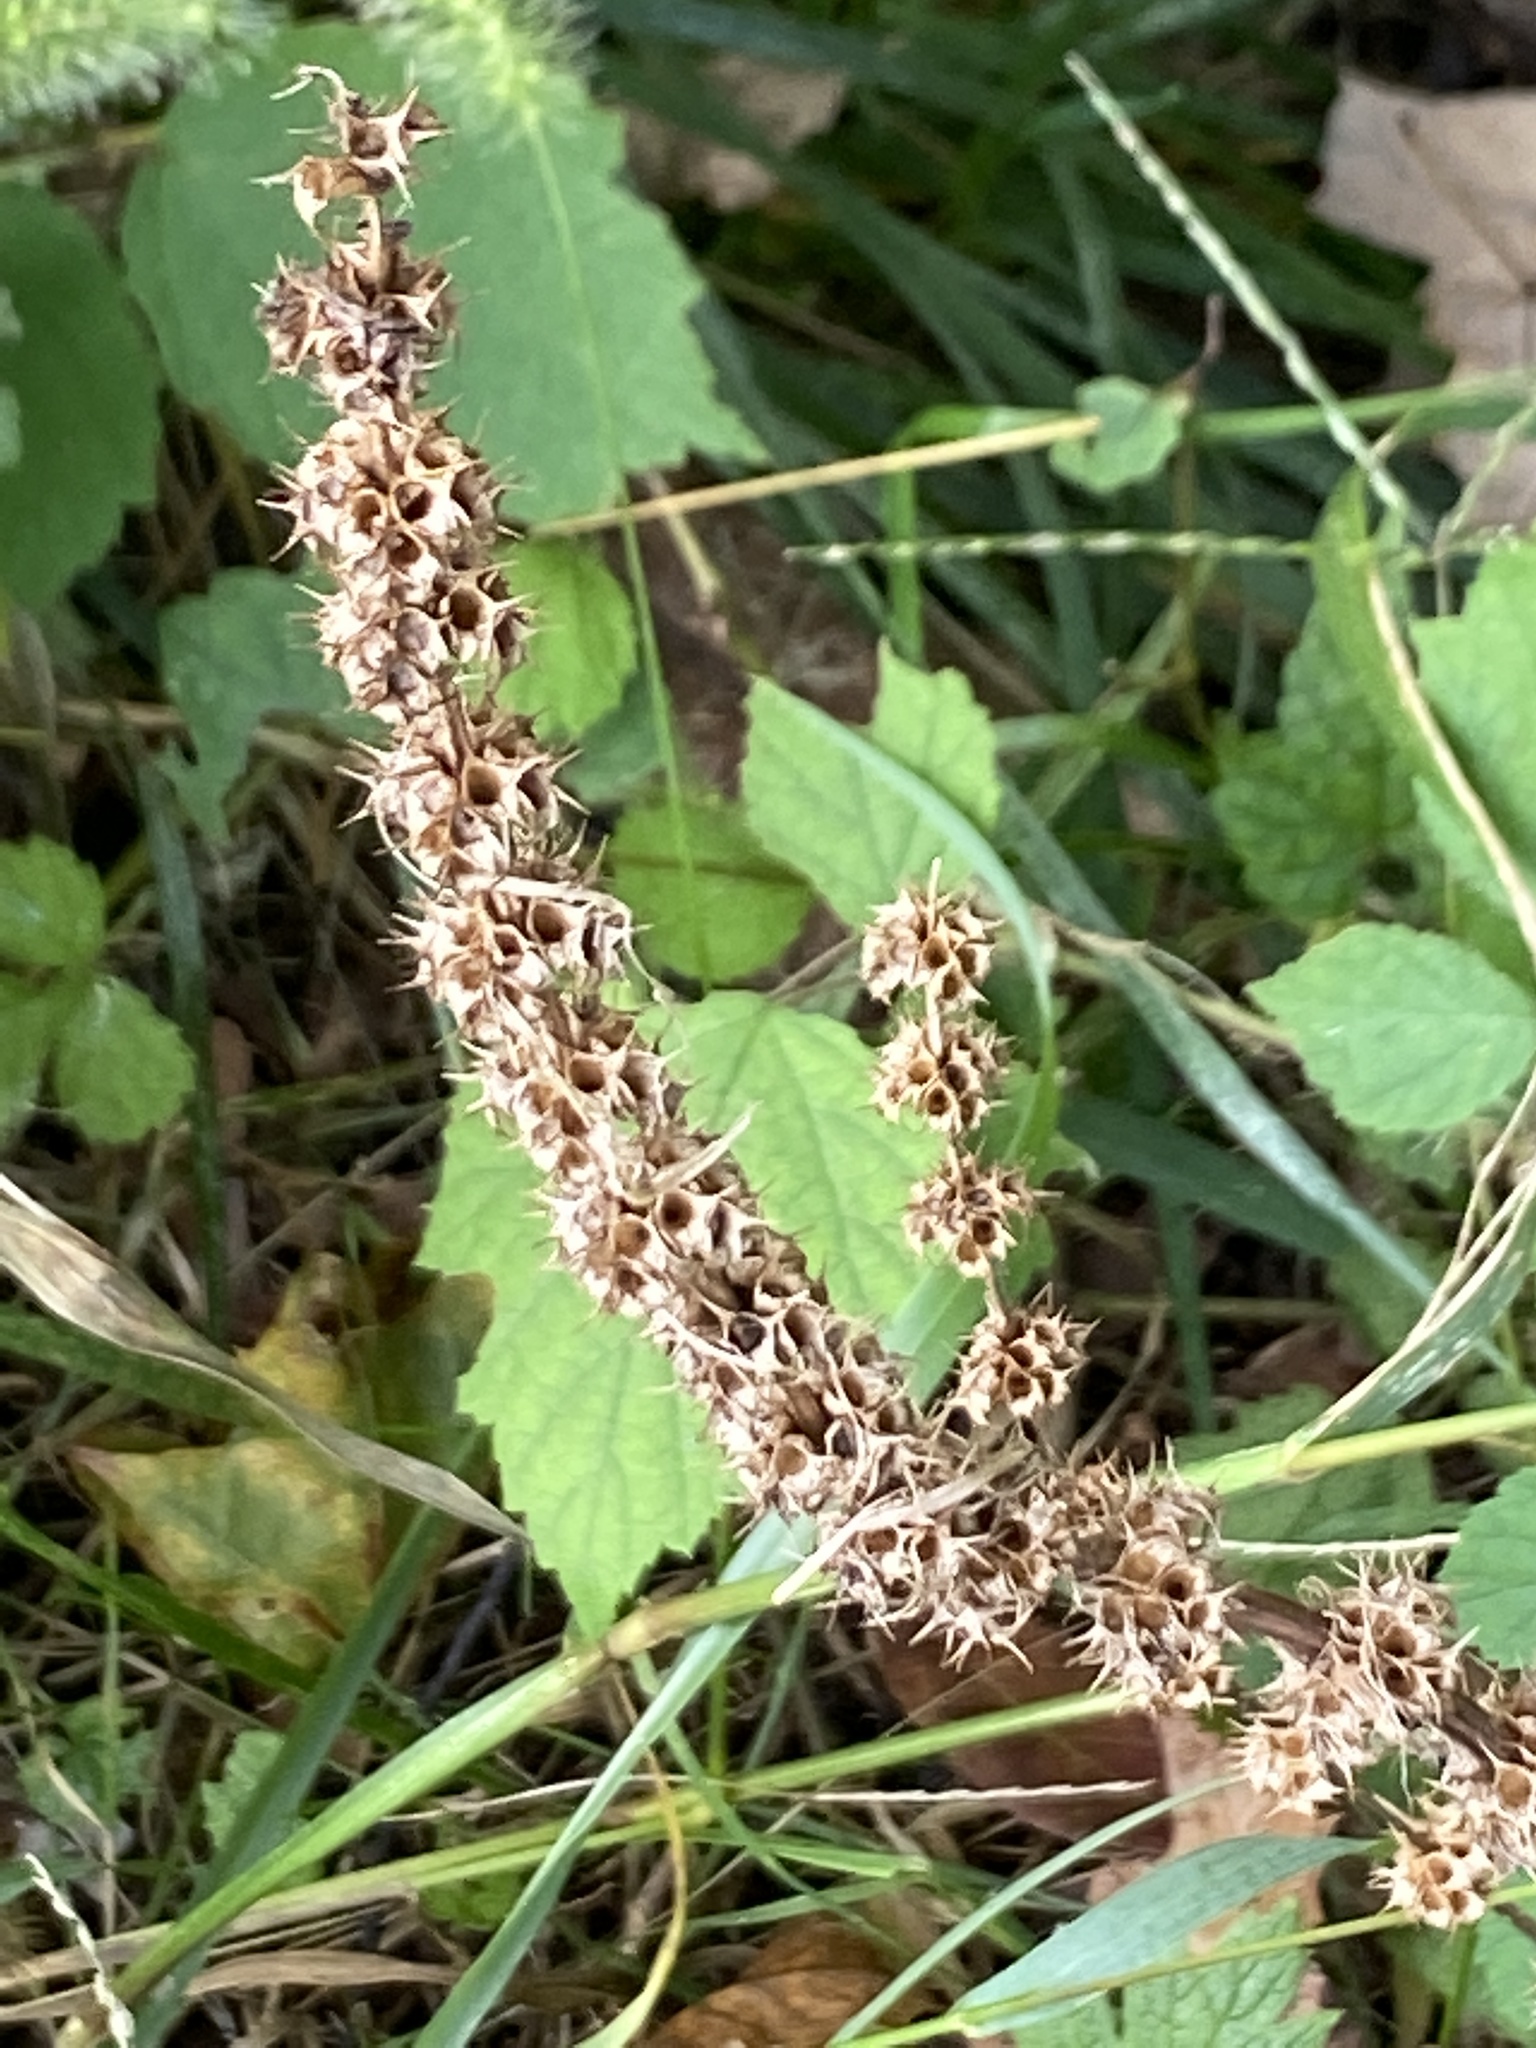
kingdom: Plantae
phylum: Tracheophyta
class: Magnoliopsida
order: Lamiales
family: Lamiaceae
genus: Leonurus
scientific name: Leonurus cardiaca
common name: Motherwort
